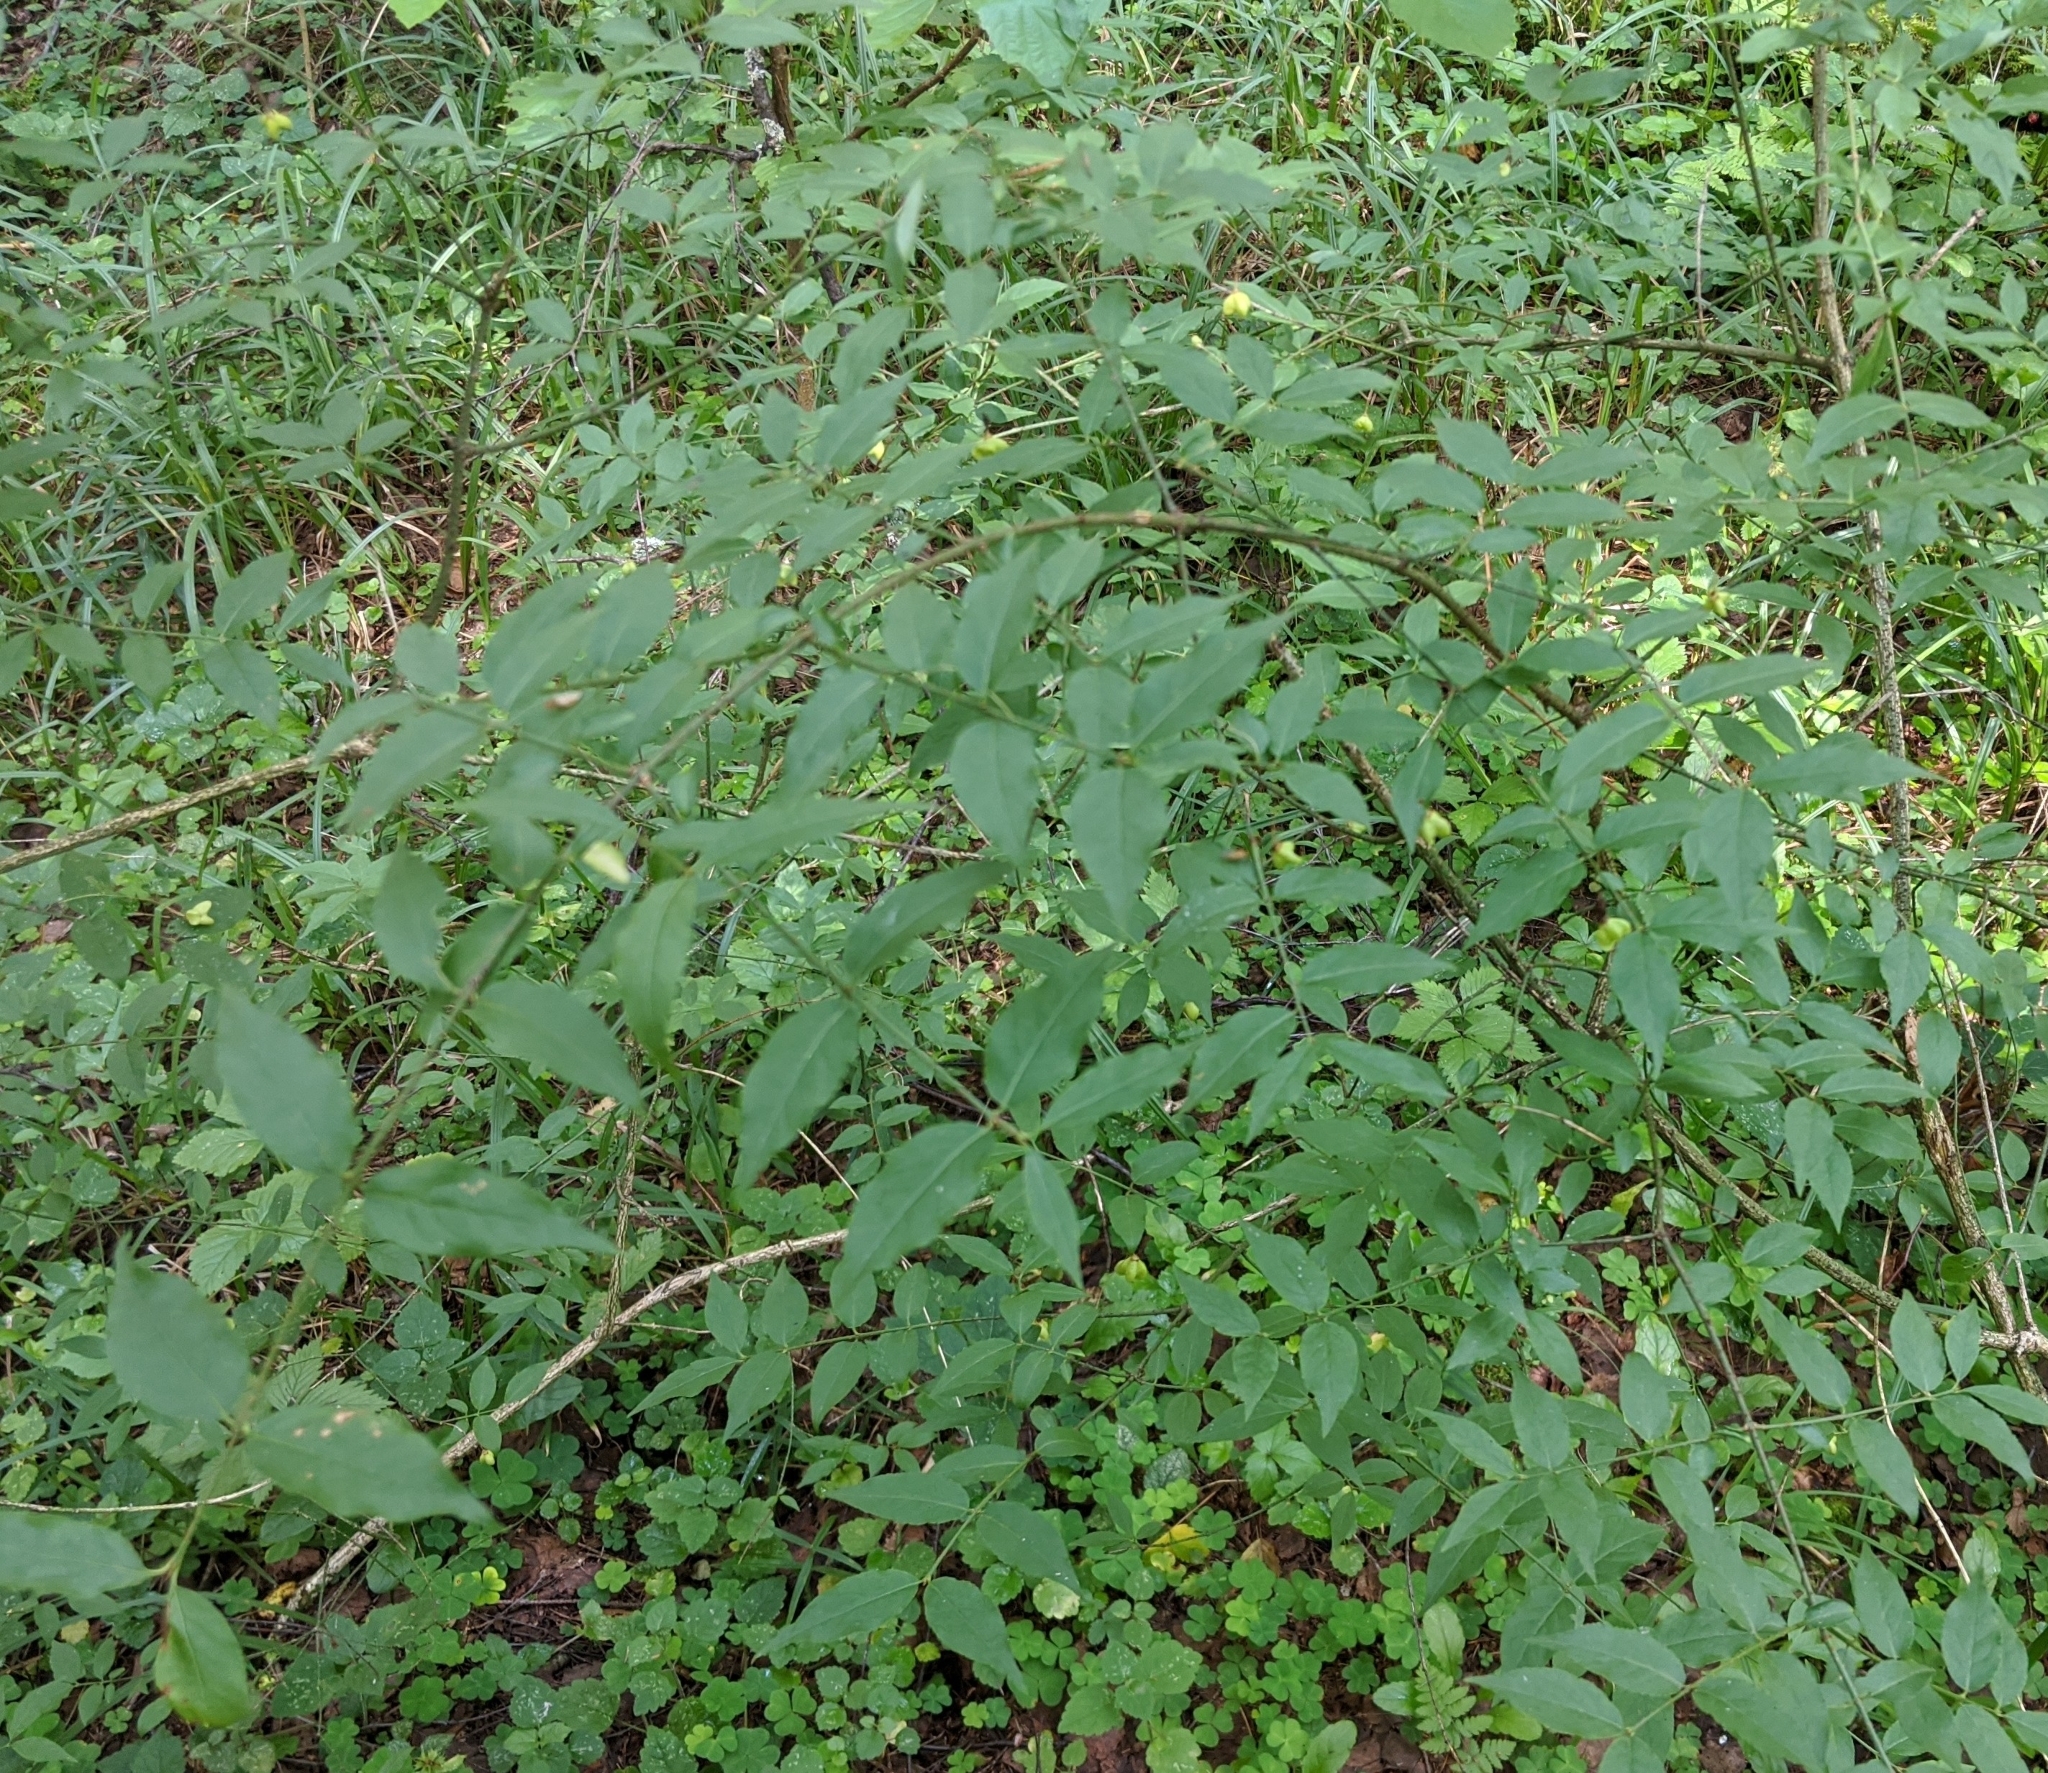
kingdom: Plantae
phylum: Tracheophyta
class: Magnoliopsida
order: Celastrales
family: Celastraceae
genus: Euonymus
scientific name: Euonymus verrucosus
